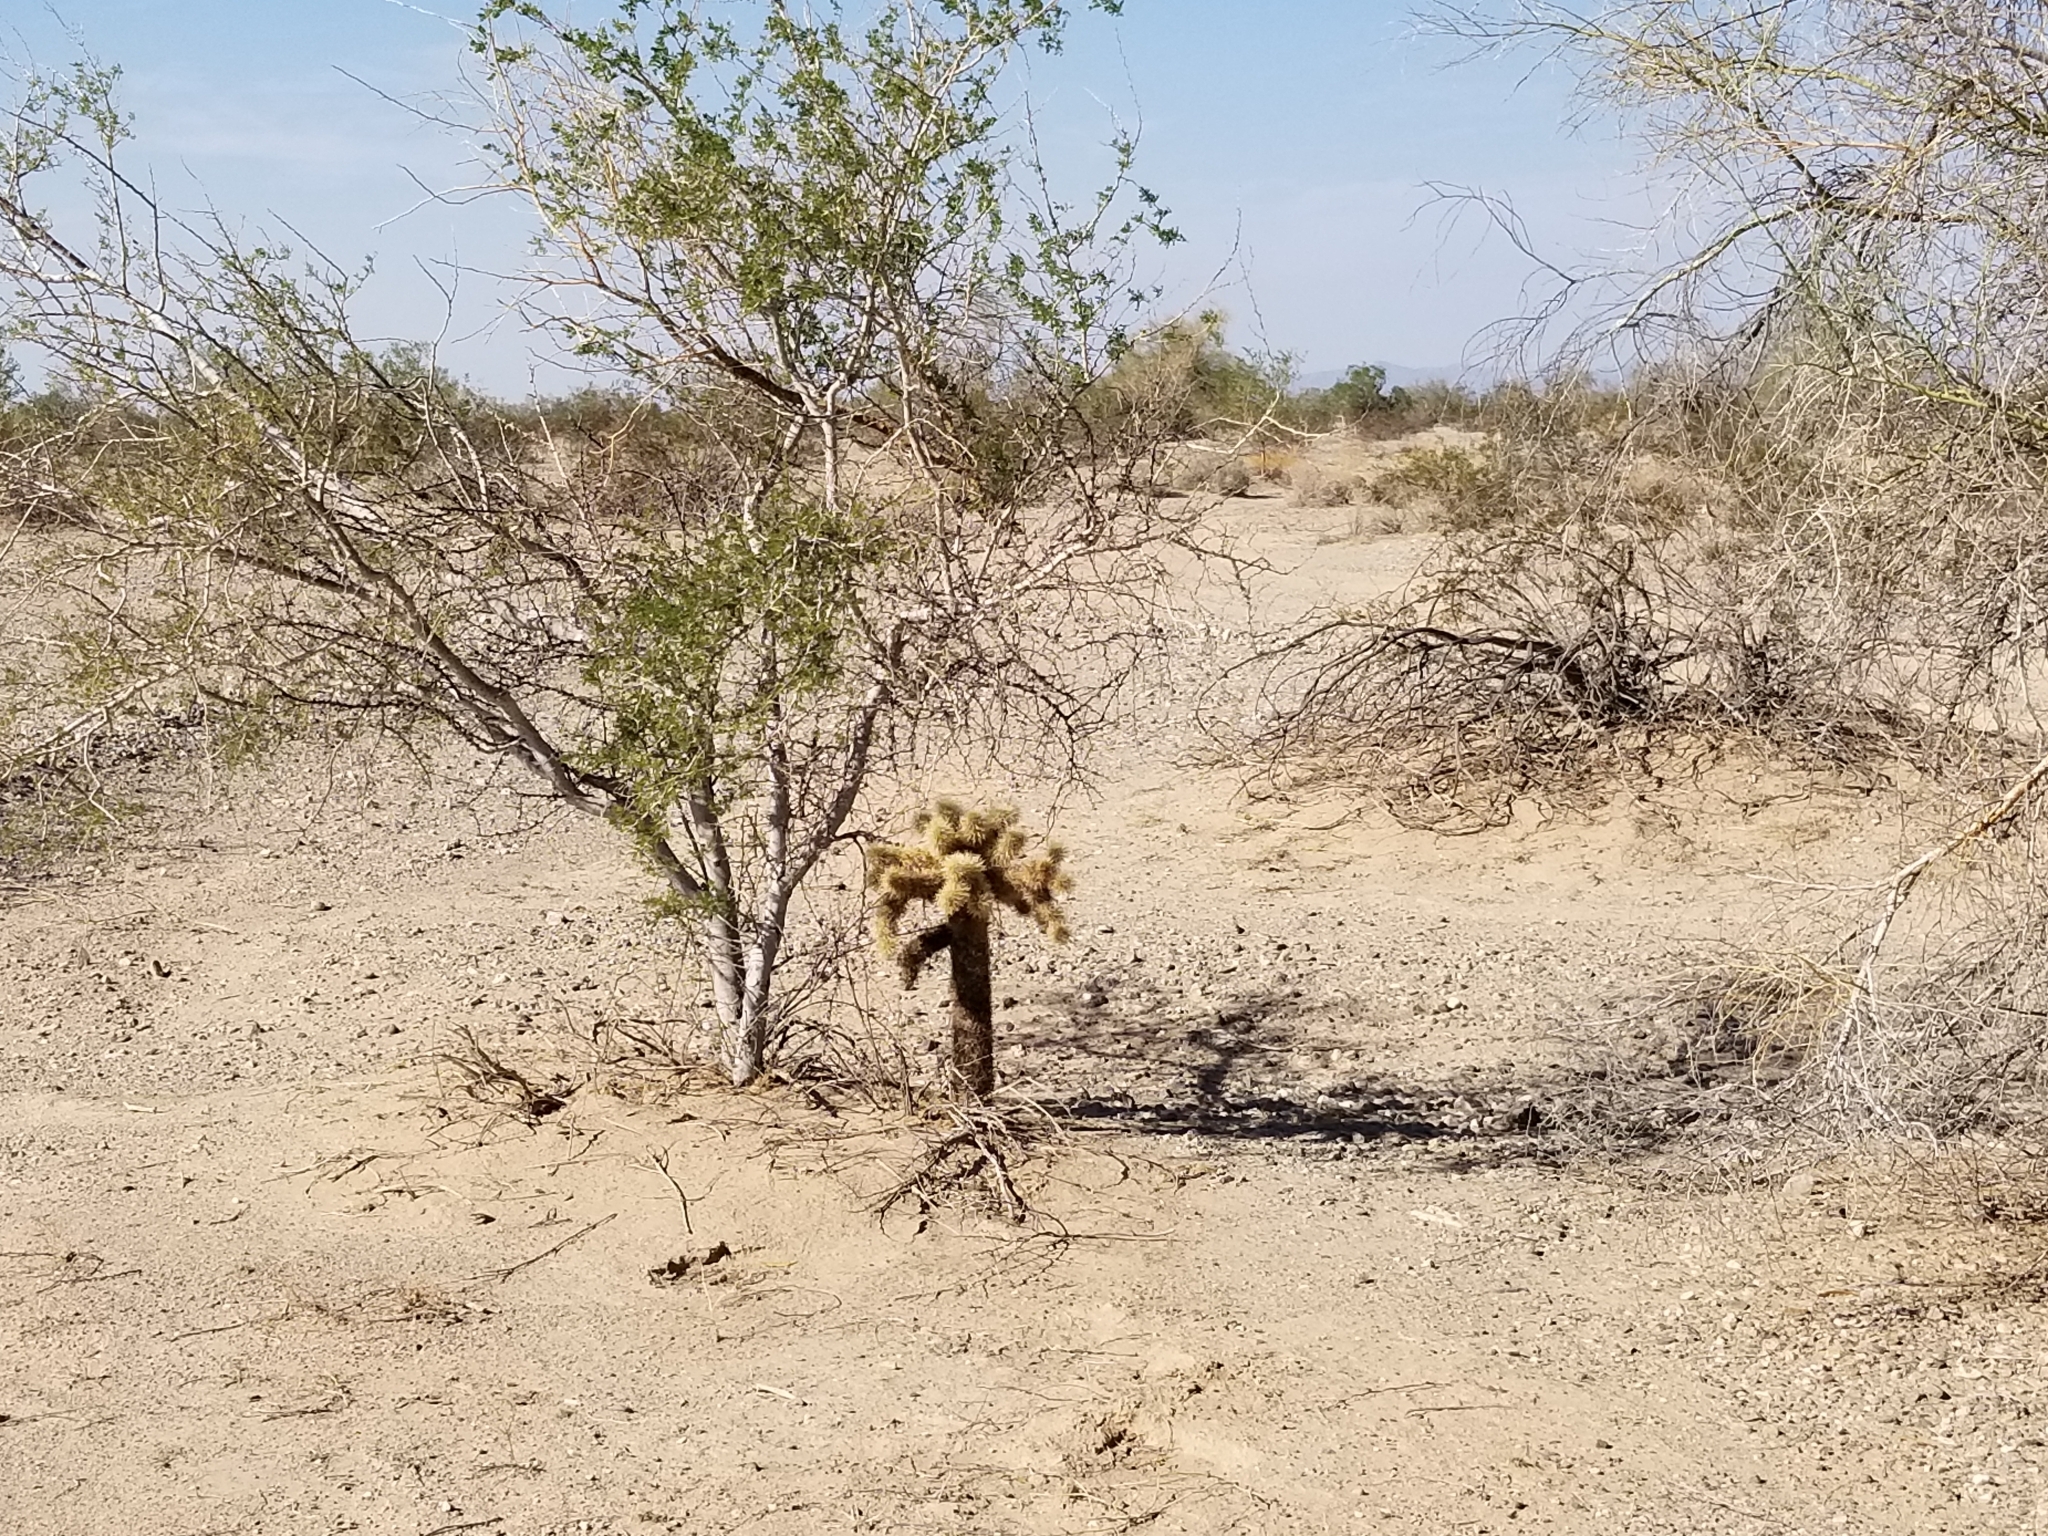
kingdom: Plantae
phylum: Tracheophyta
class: Magnoliopsida
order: Caryophyllales
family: Cactaceae
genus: Cylindropuntia
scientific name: Cylindropuntia fosbergii
